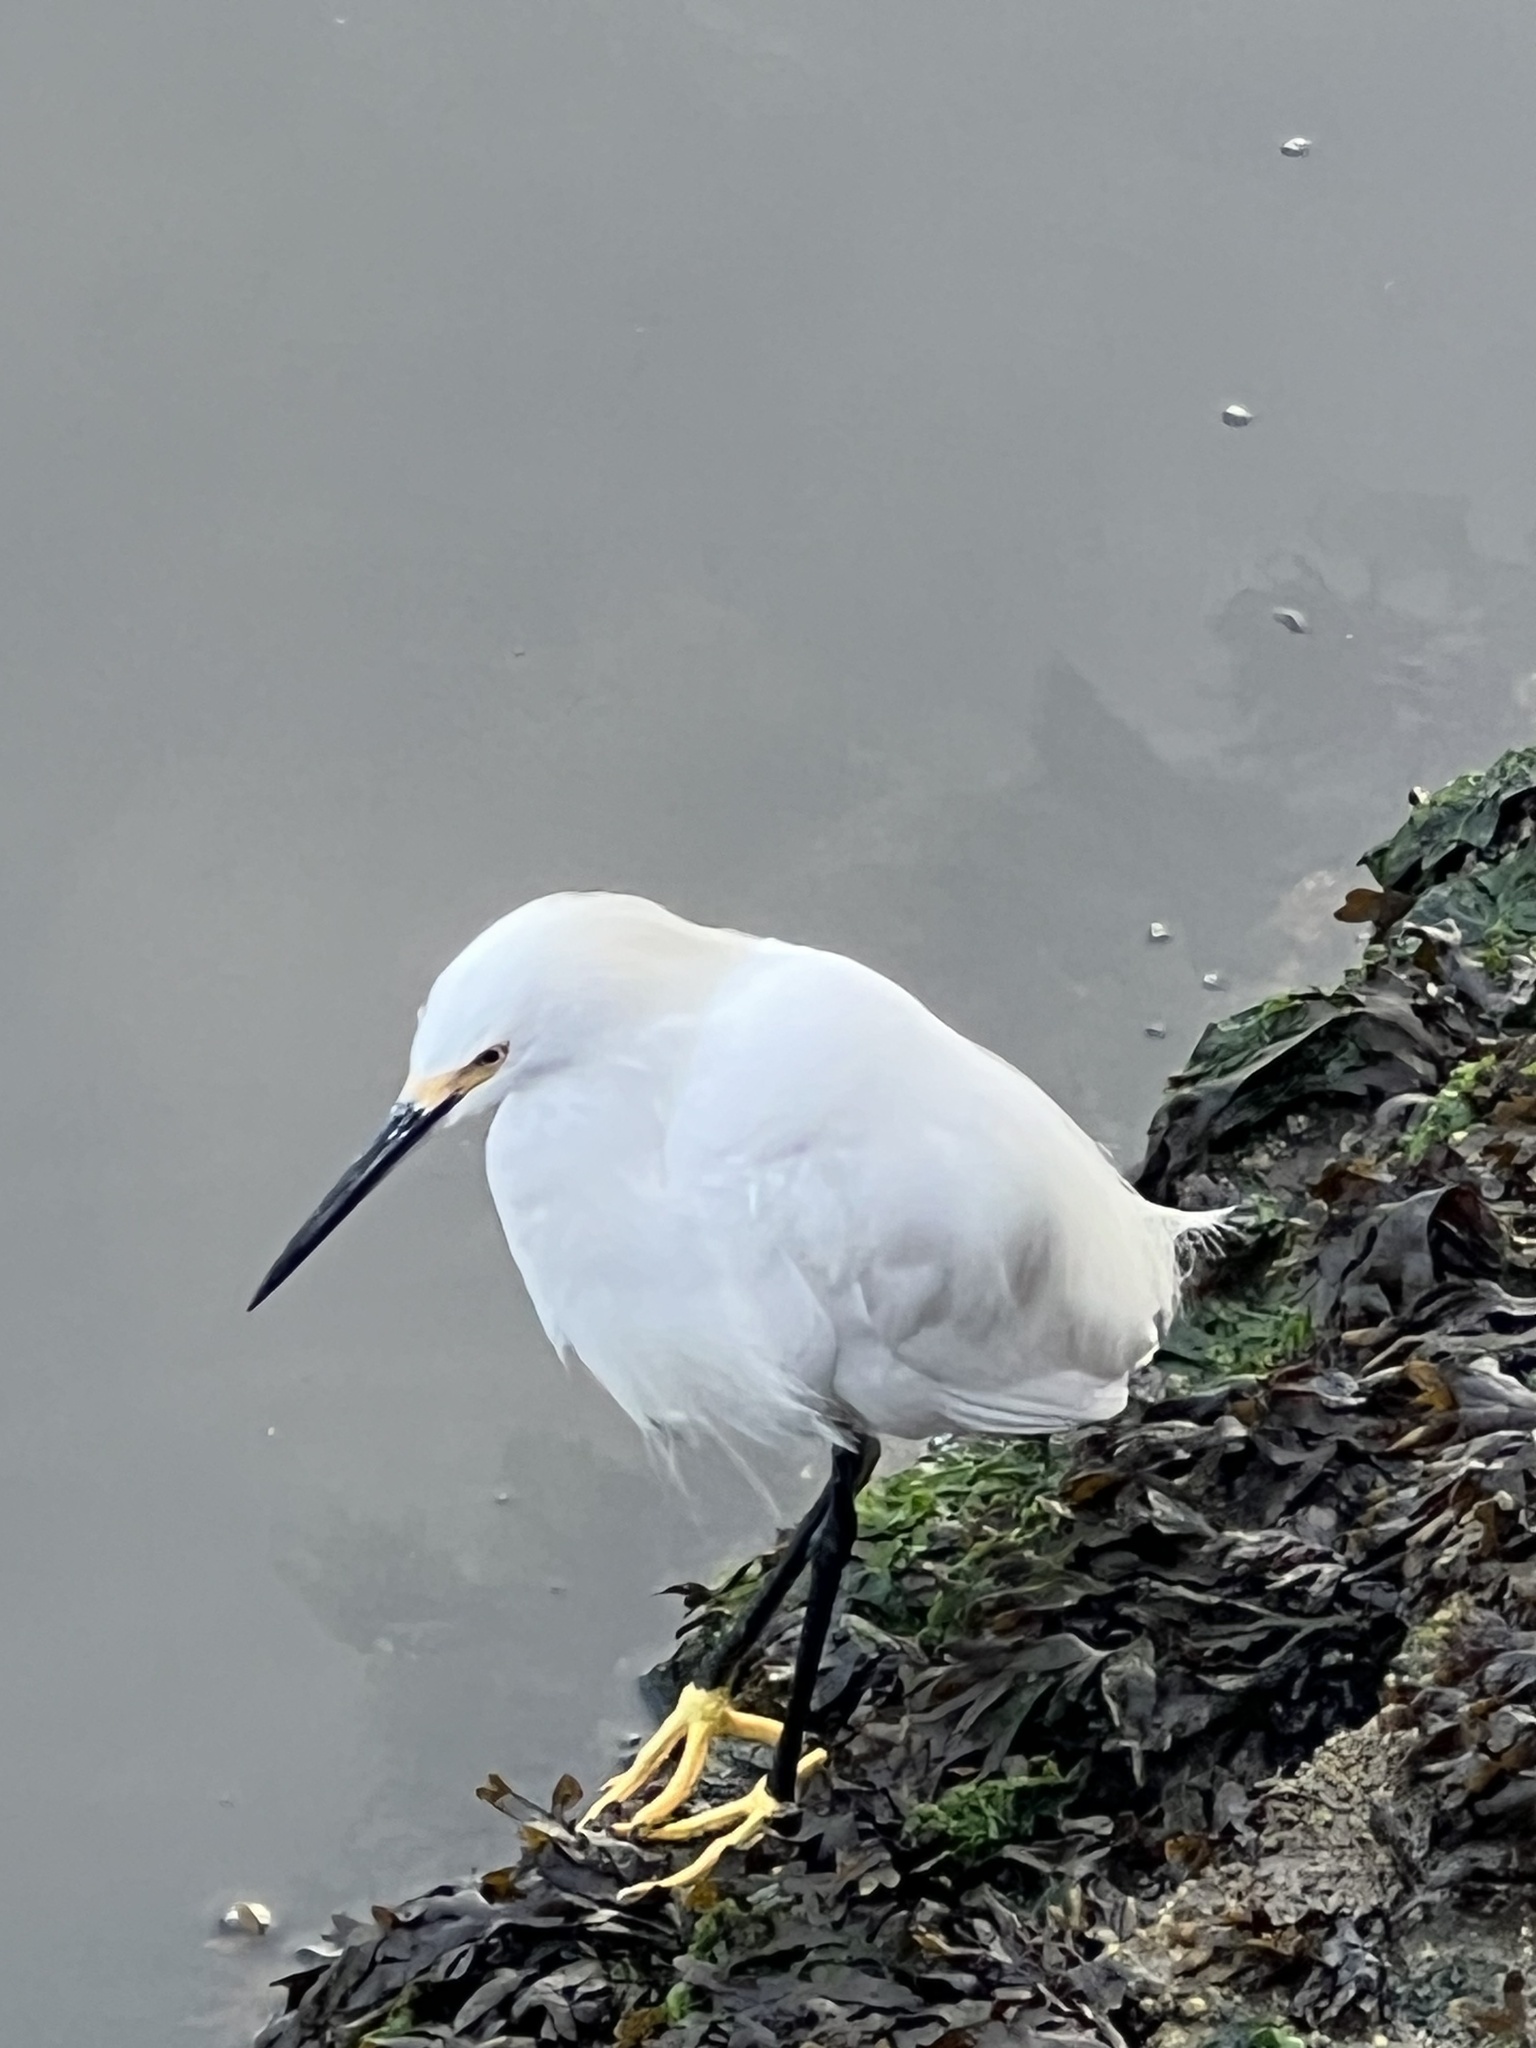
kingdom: Animalia
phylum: Chordata
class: Aves
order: Pelecaniformes
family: Ardeidae
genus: Egretta
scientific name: Egretta thula
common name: Snowy egret
